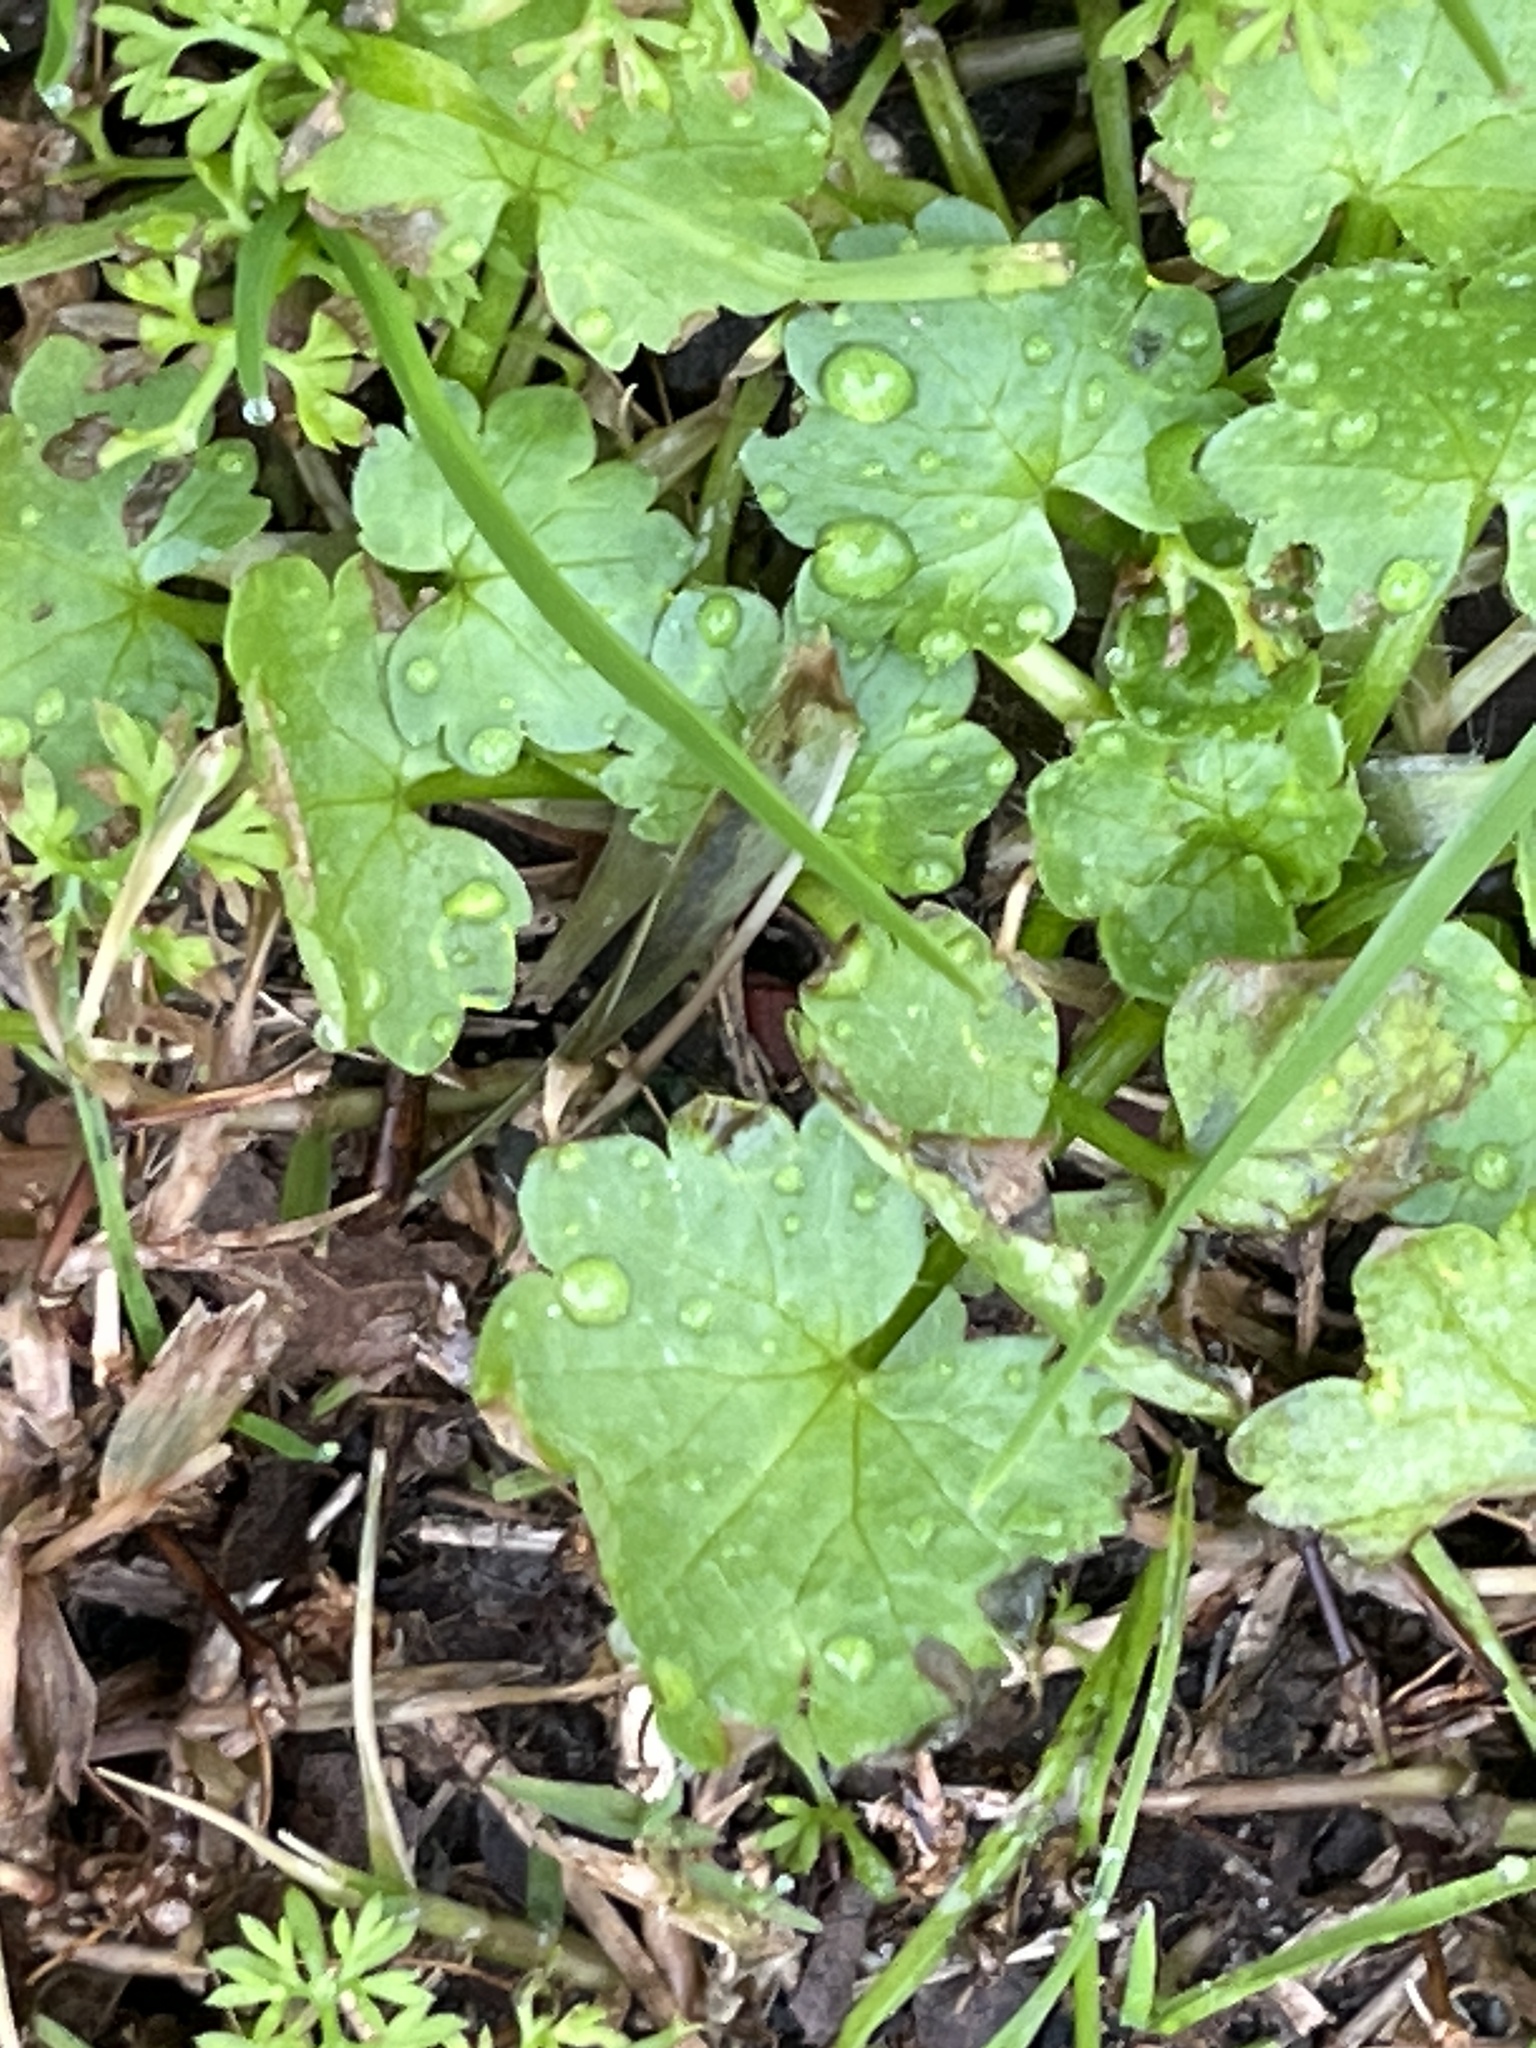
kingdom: Plantae
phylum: Tracheophyta
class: Magnoliopsida
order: Malvales
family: Malvaceae
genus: Modiola
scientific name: Modiola caroliniana
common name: Carolina bristlemallow
